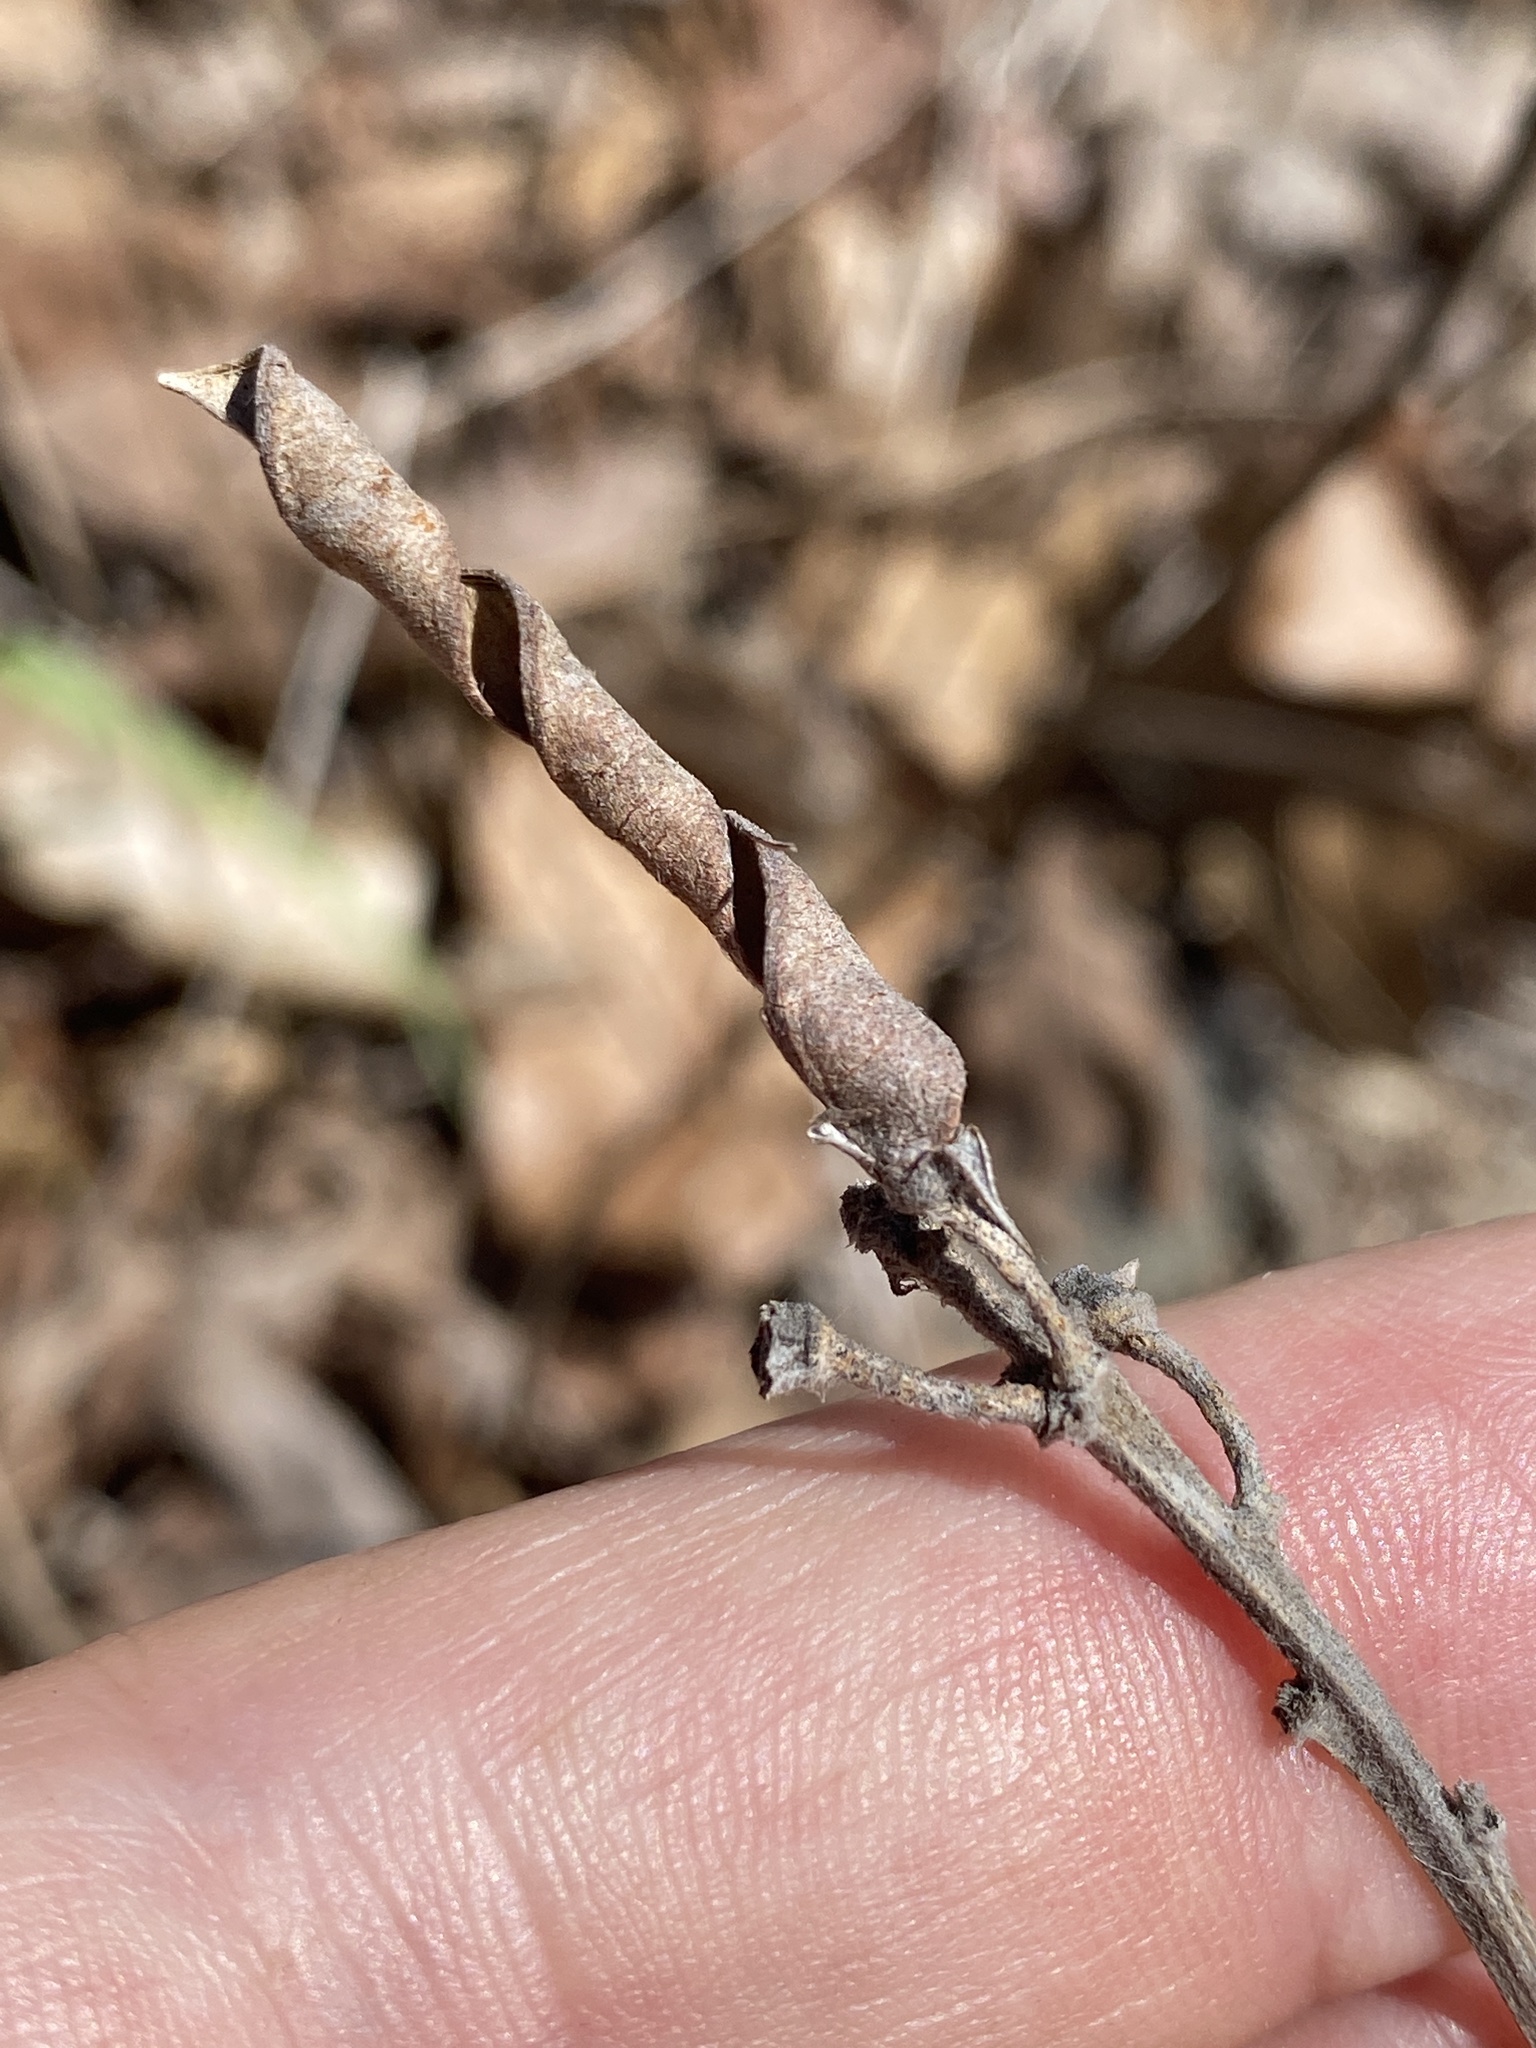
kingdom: Plantae
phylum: Tracheophyta
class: Magnoliopsida
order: Fabales
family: Fabaceae
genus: Tephrosia
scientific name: Tephrosia virginiana
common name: Rabbit-pea
